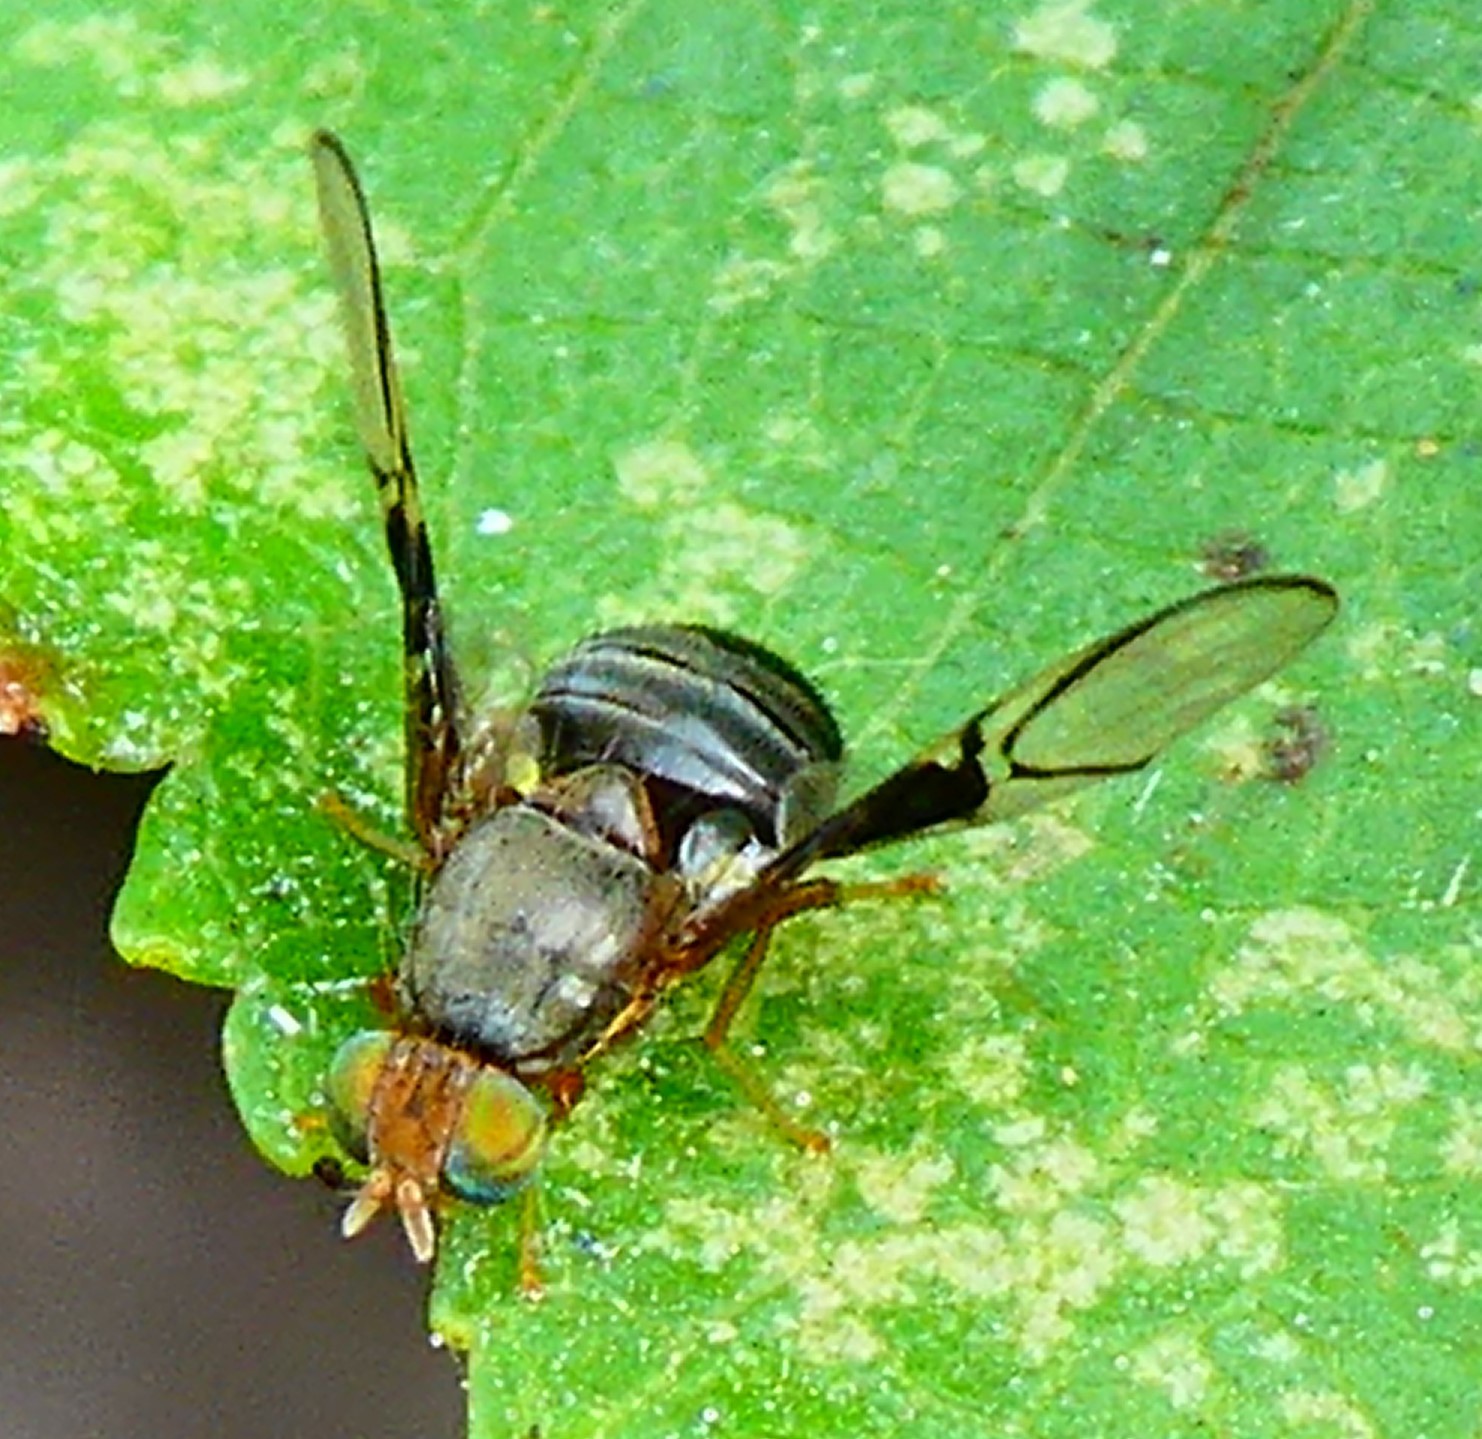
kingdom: Animalia
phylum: Arthropoda
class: Insecta
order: Diptera
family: Tephritidae
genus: Anomoia
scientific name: Anomoia purmunda
